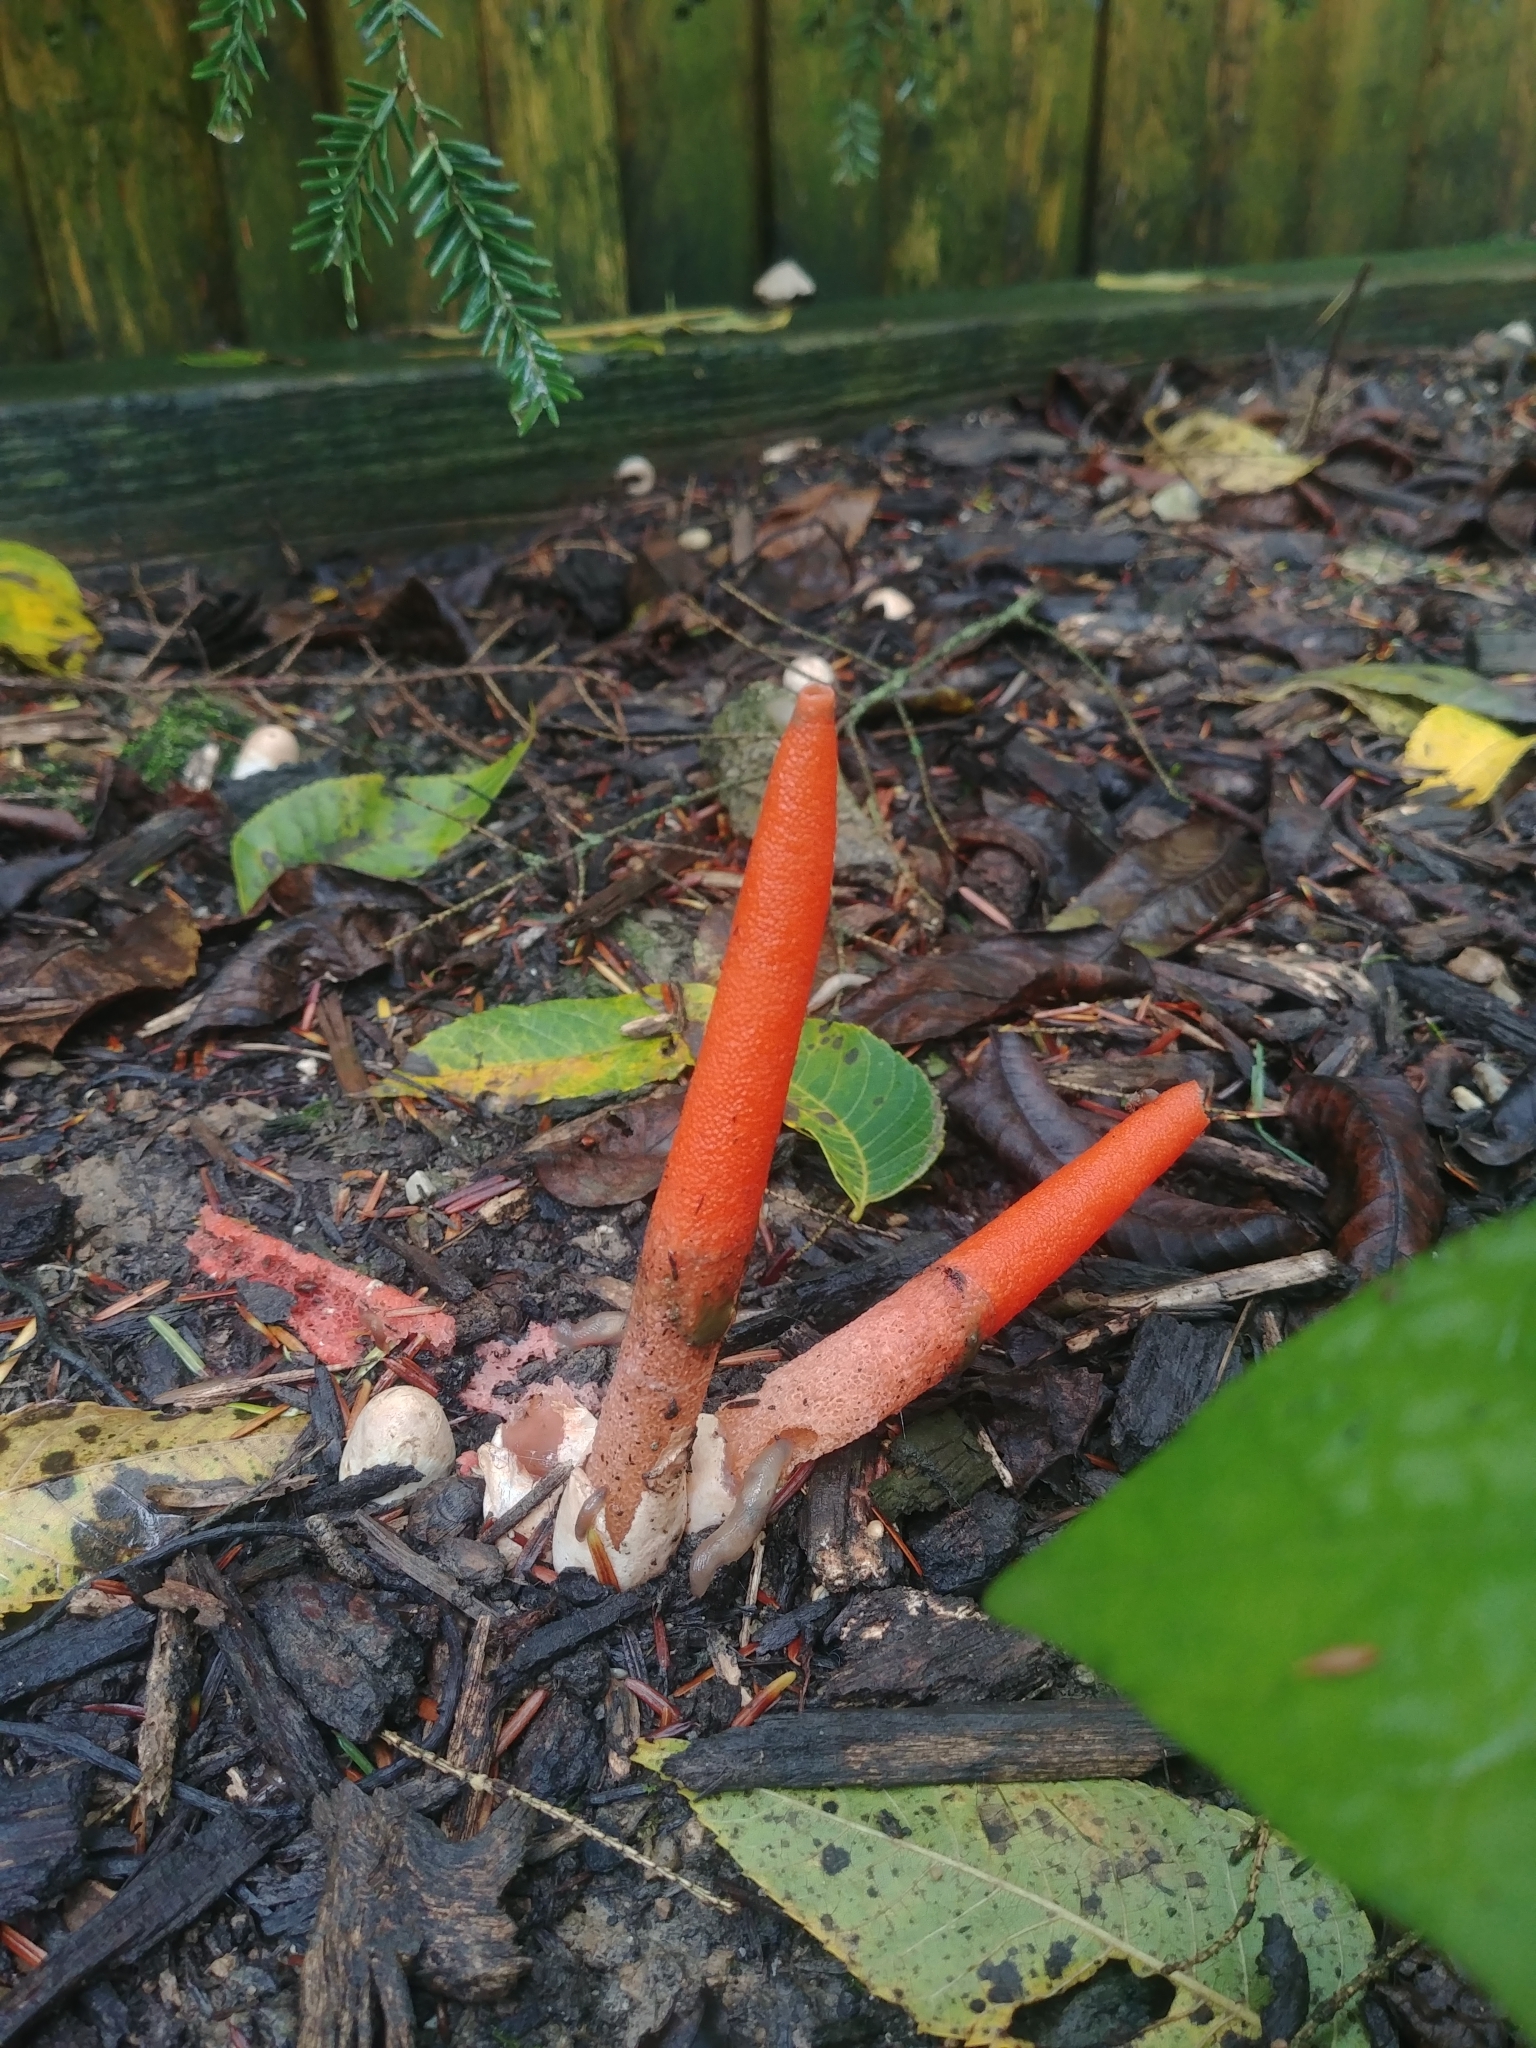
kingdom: Fungi
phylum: Basidiomycota
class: Agaricomycetes
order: Phallales
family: Phallaceae
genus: Mutinus
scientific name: Mutinus elegans
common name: Devil's dipstick
